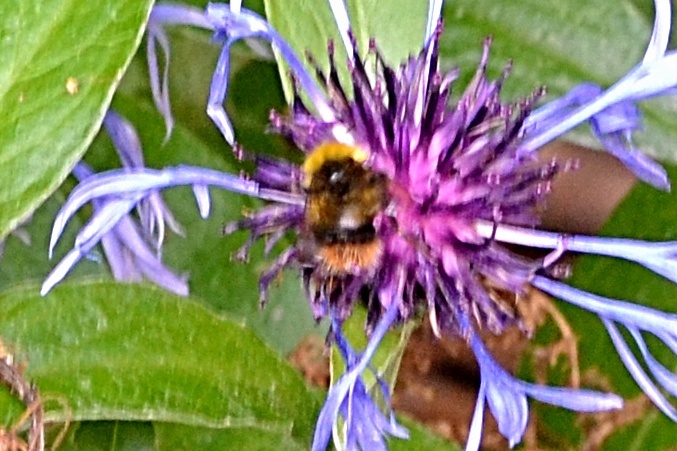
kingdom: Animalia
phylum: Arthropoda
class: Insecta
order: Hymenoptera
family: Apidae
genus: Bombus
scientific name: Bombus pratorum
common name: Early humble-bee
